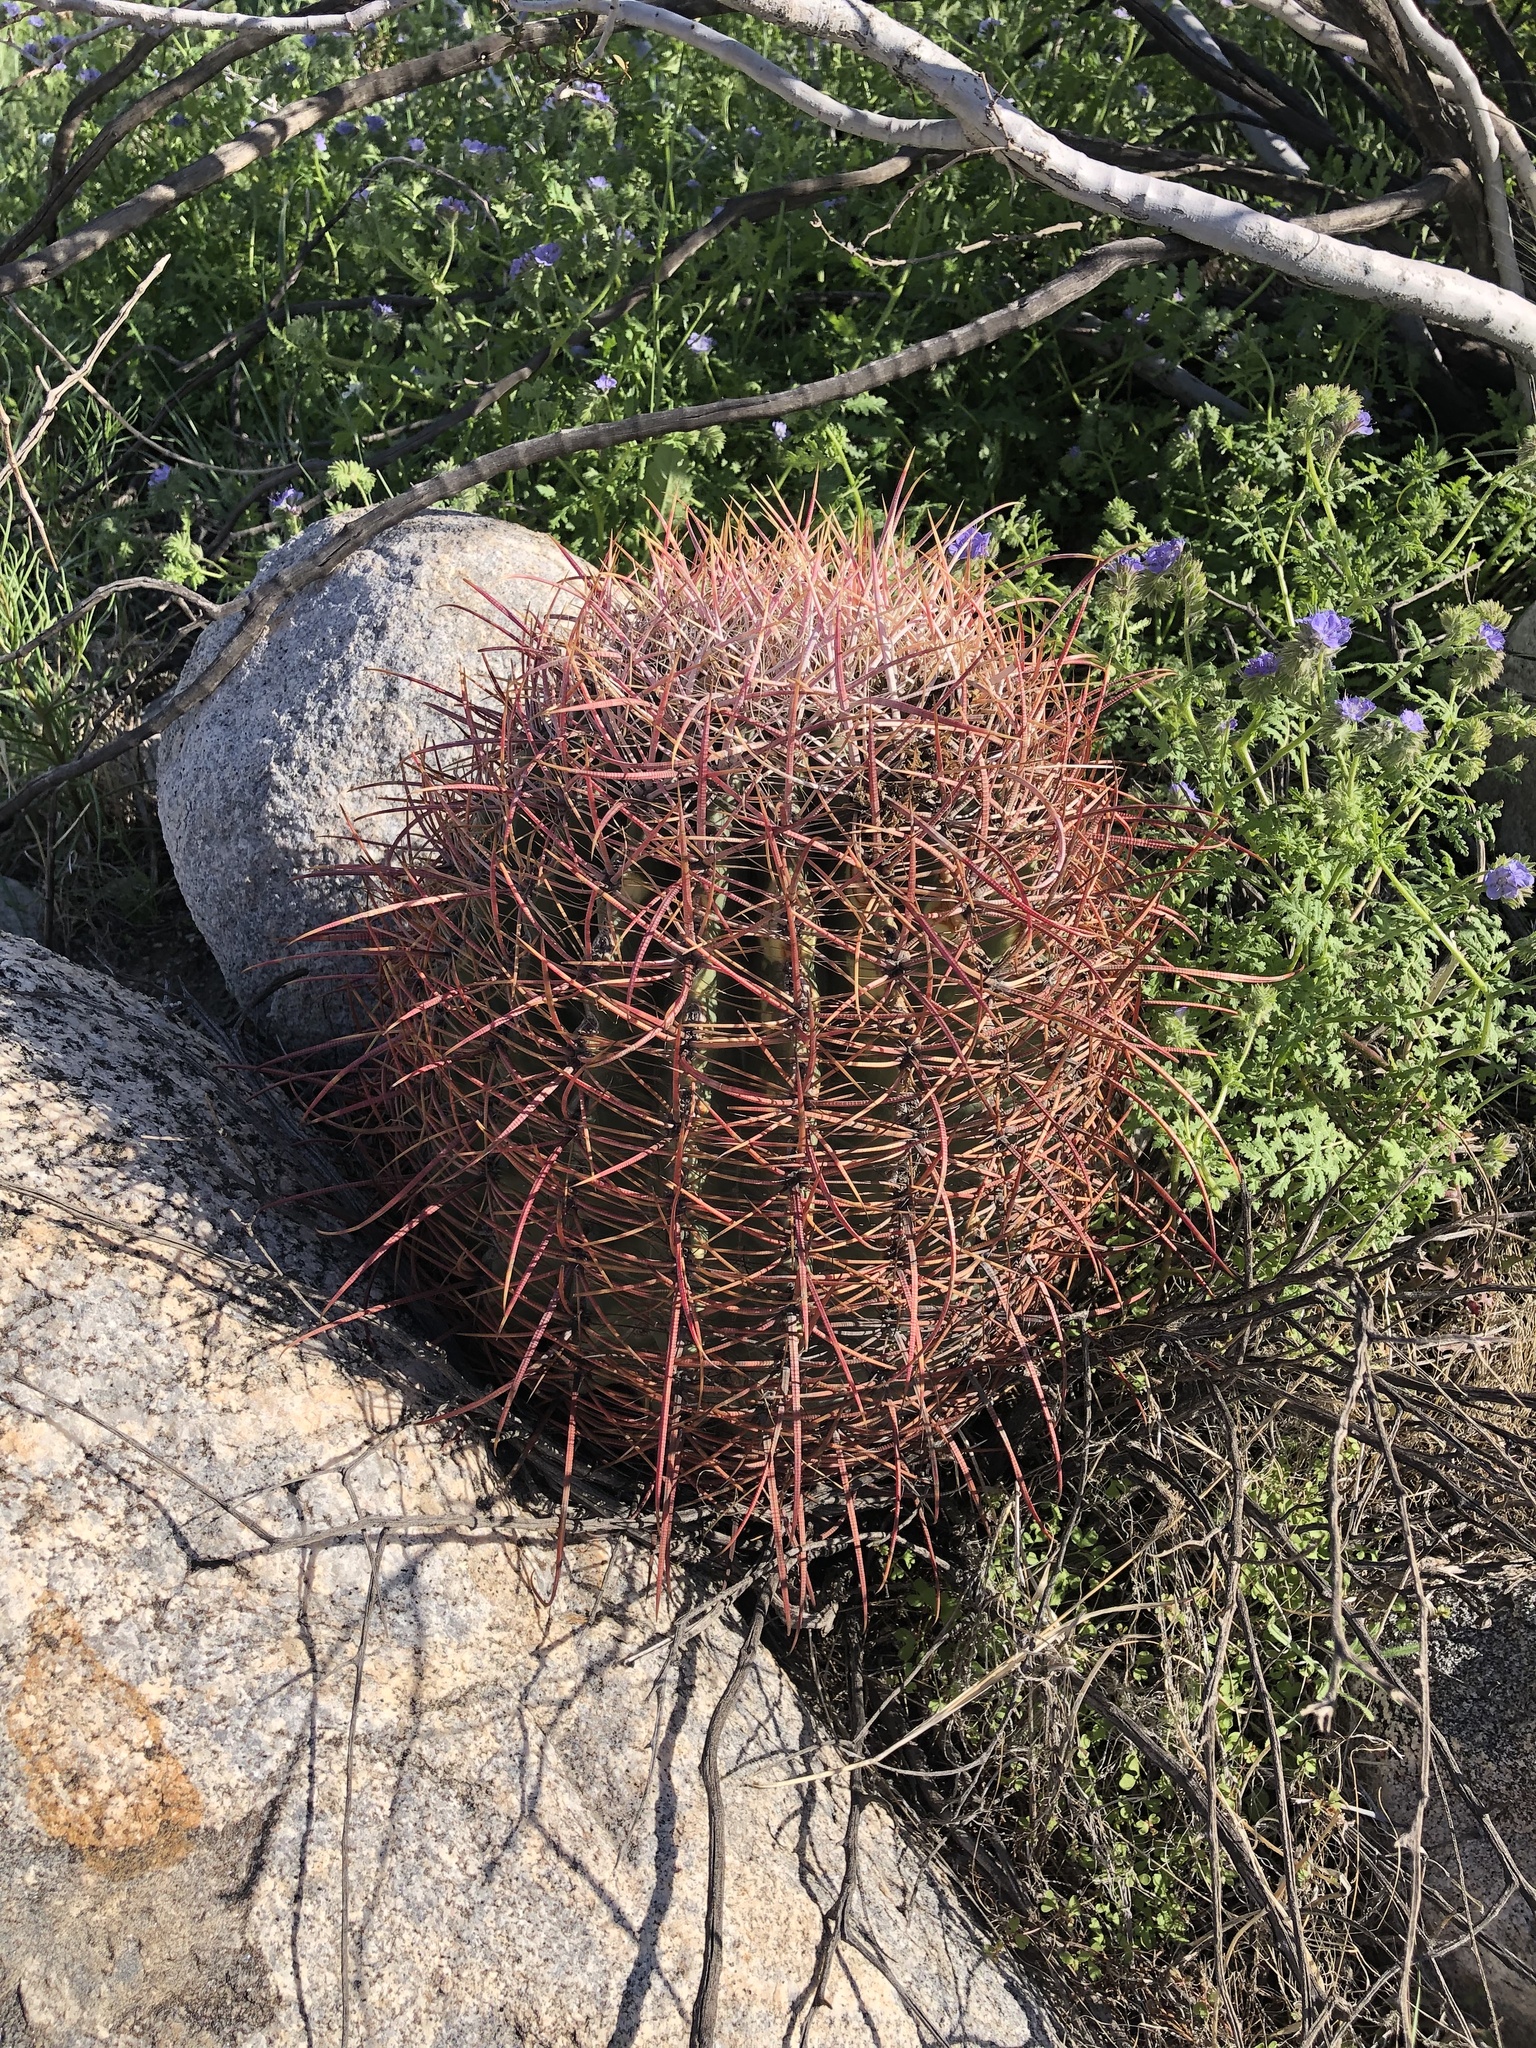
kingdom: Plantae
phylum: Tracheophyta
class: Magnoliopsida
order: Caryophyllales
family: Cactaceae
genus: Ferocactus
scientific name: Ferocactus cylindraceus
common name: California barrel cactus
